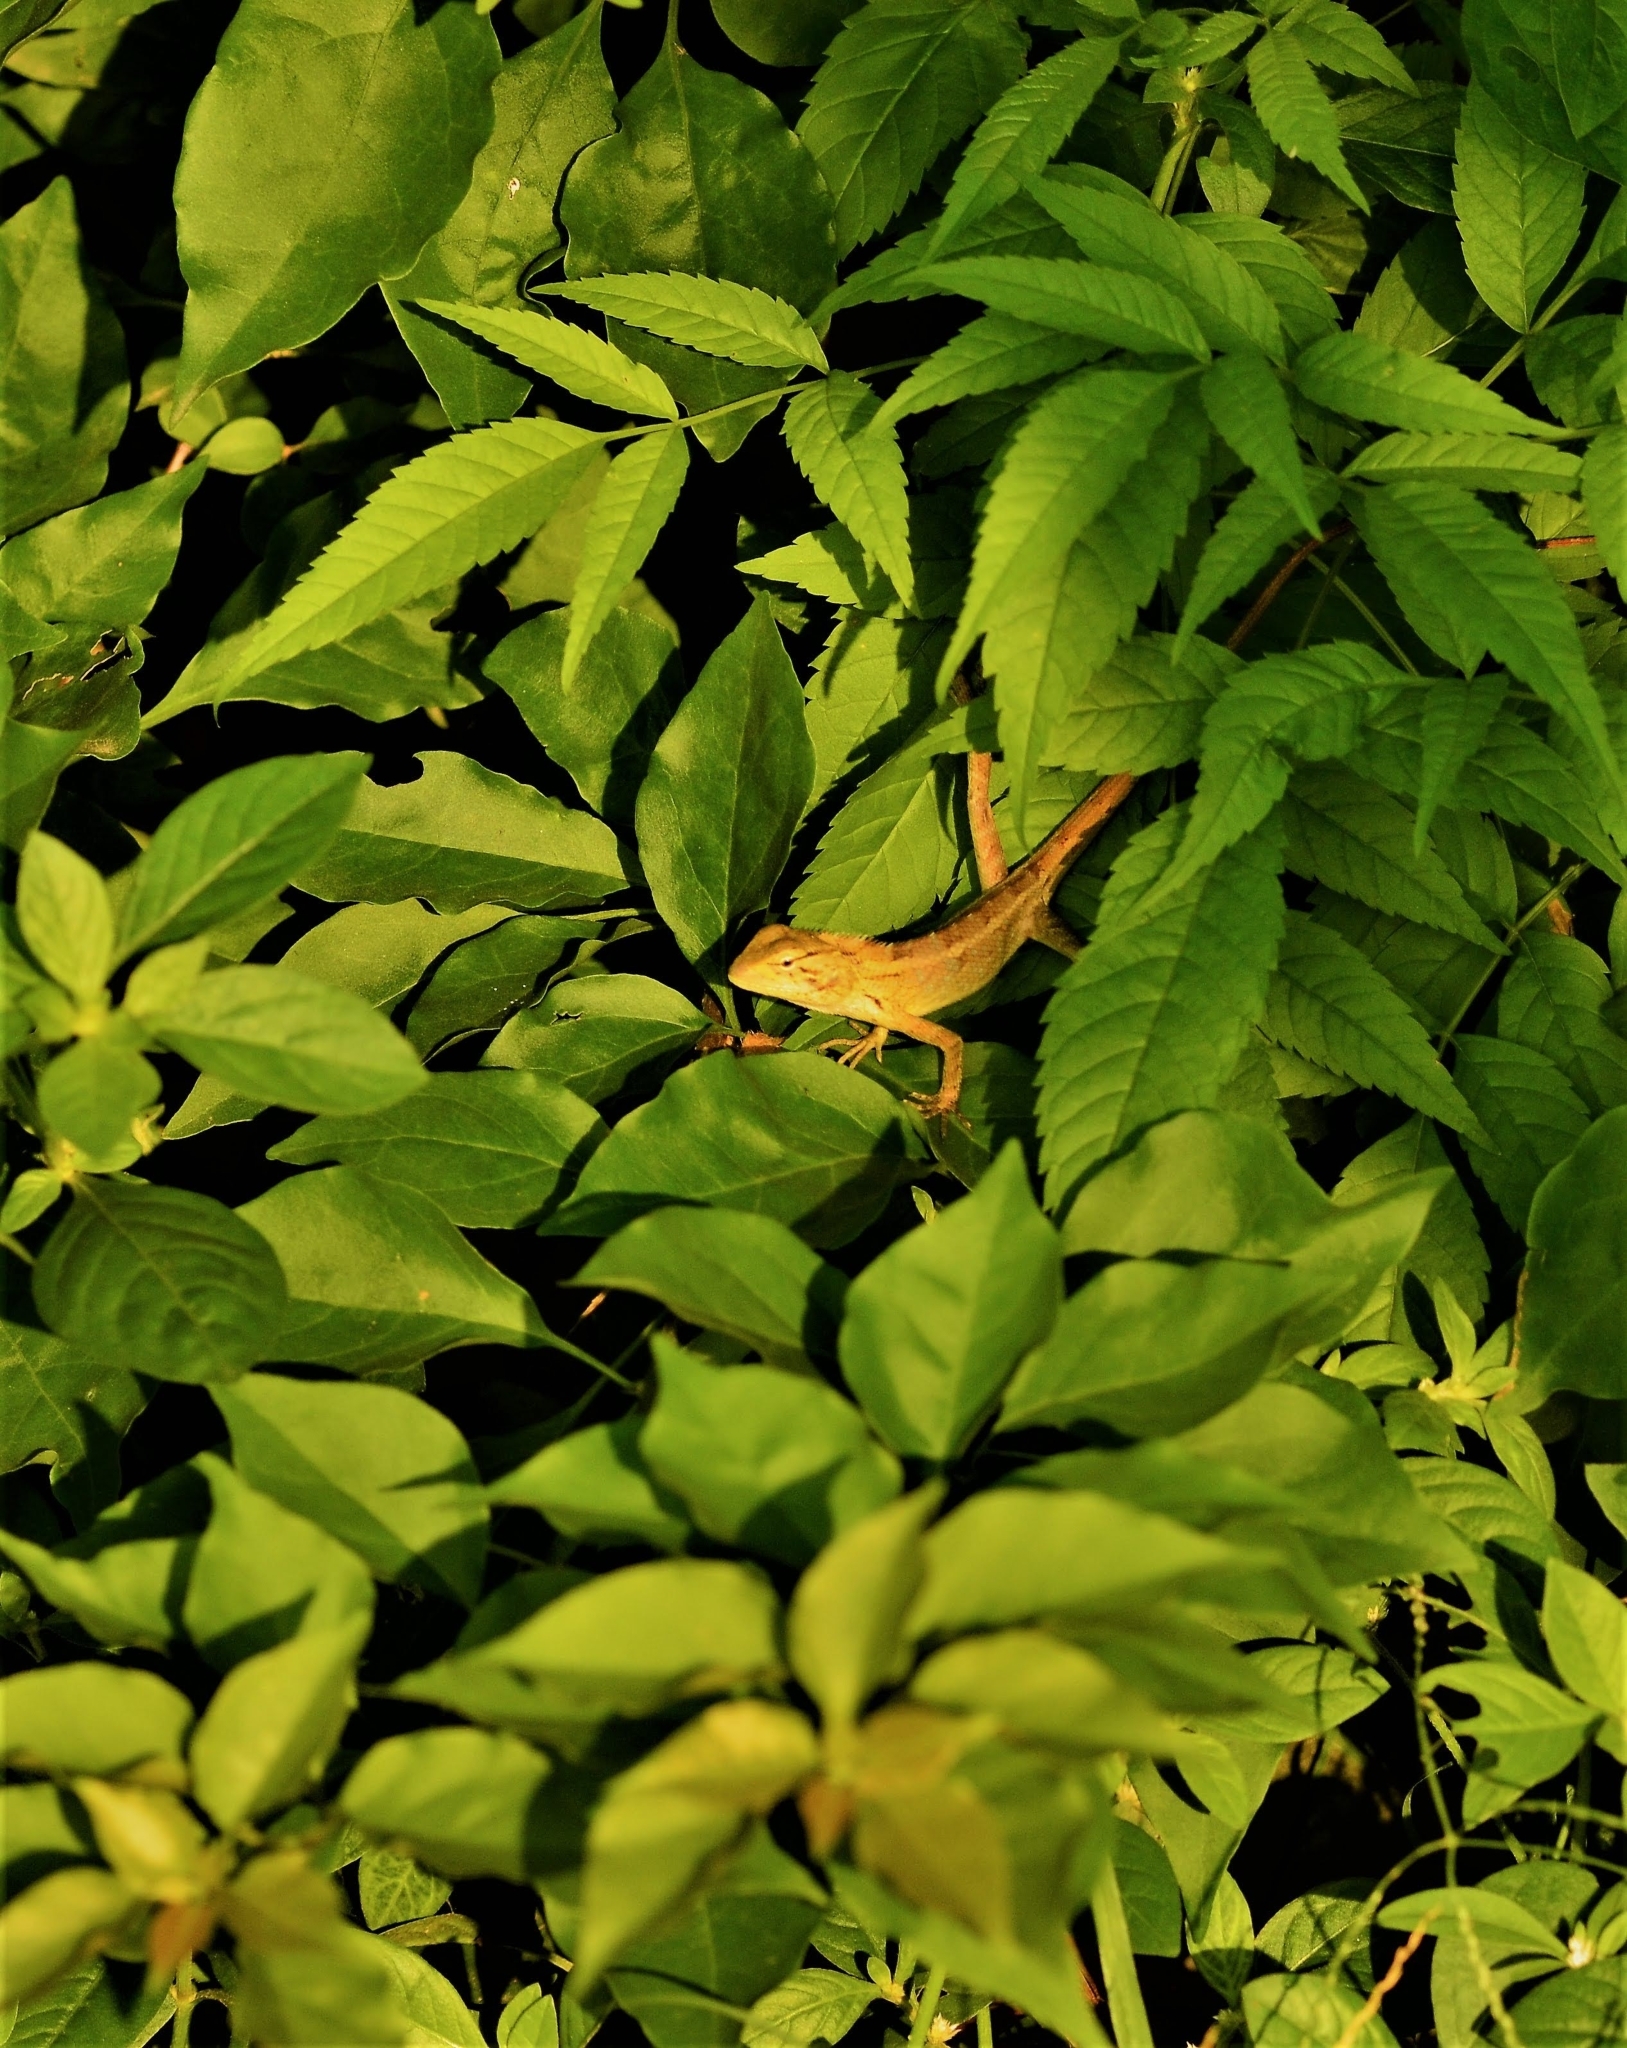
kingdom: Animalia
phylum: Chordata
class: Squamata
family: Agamidae
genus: Calotes
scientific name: Calotes versicolor
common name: Oriental garden lizard
